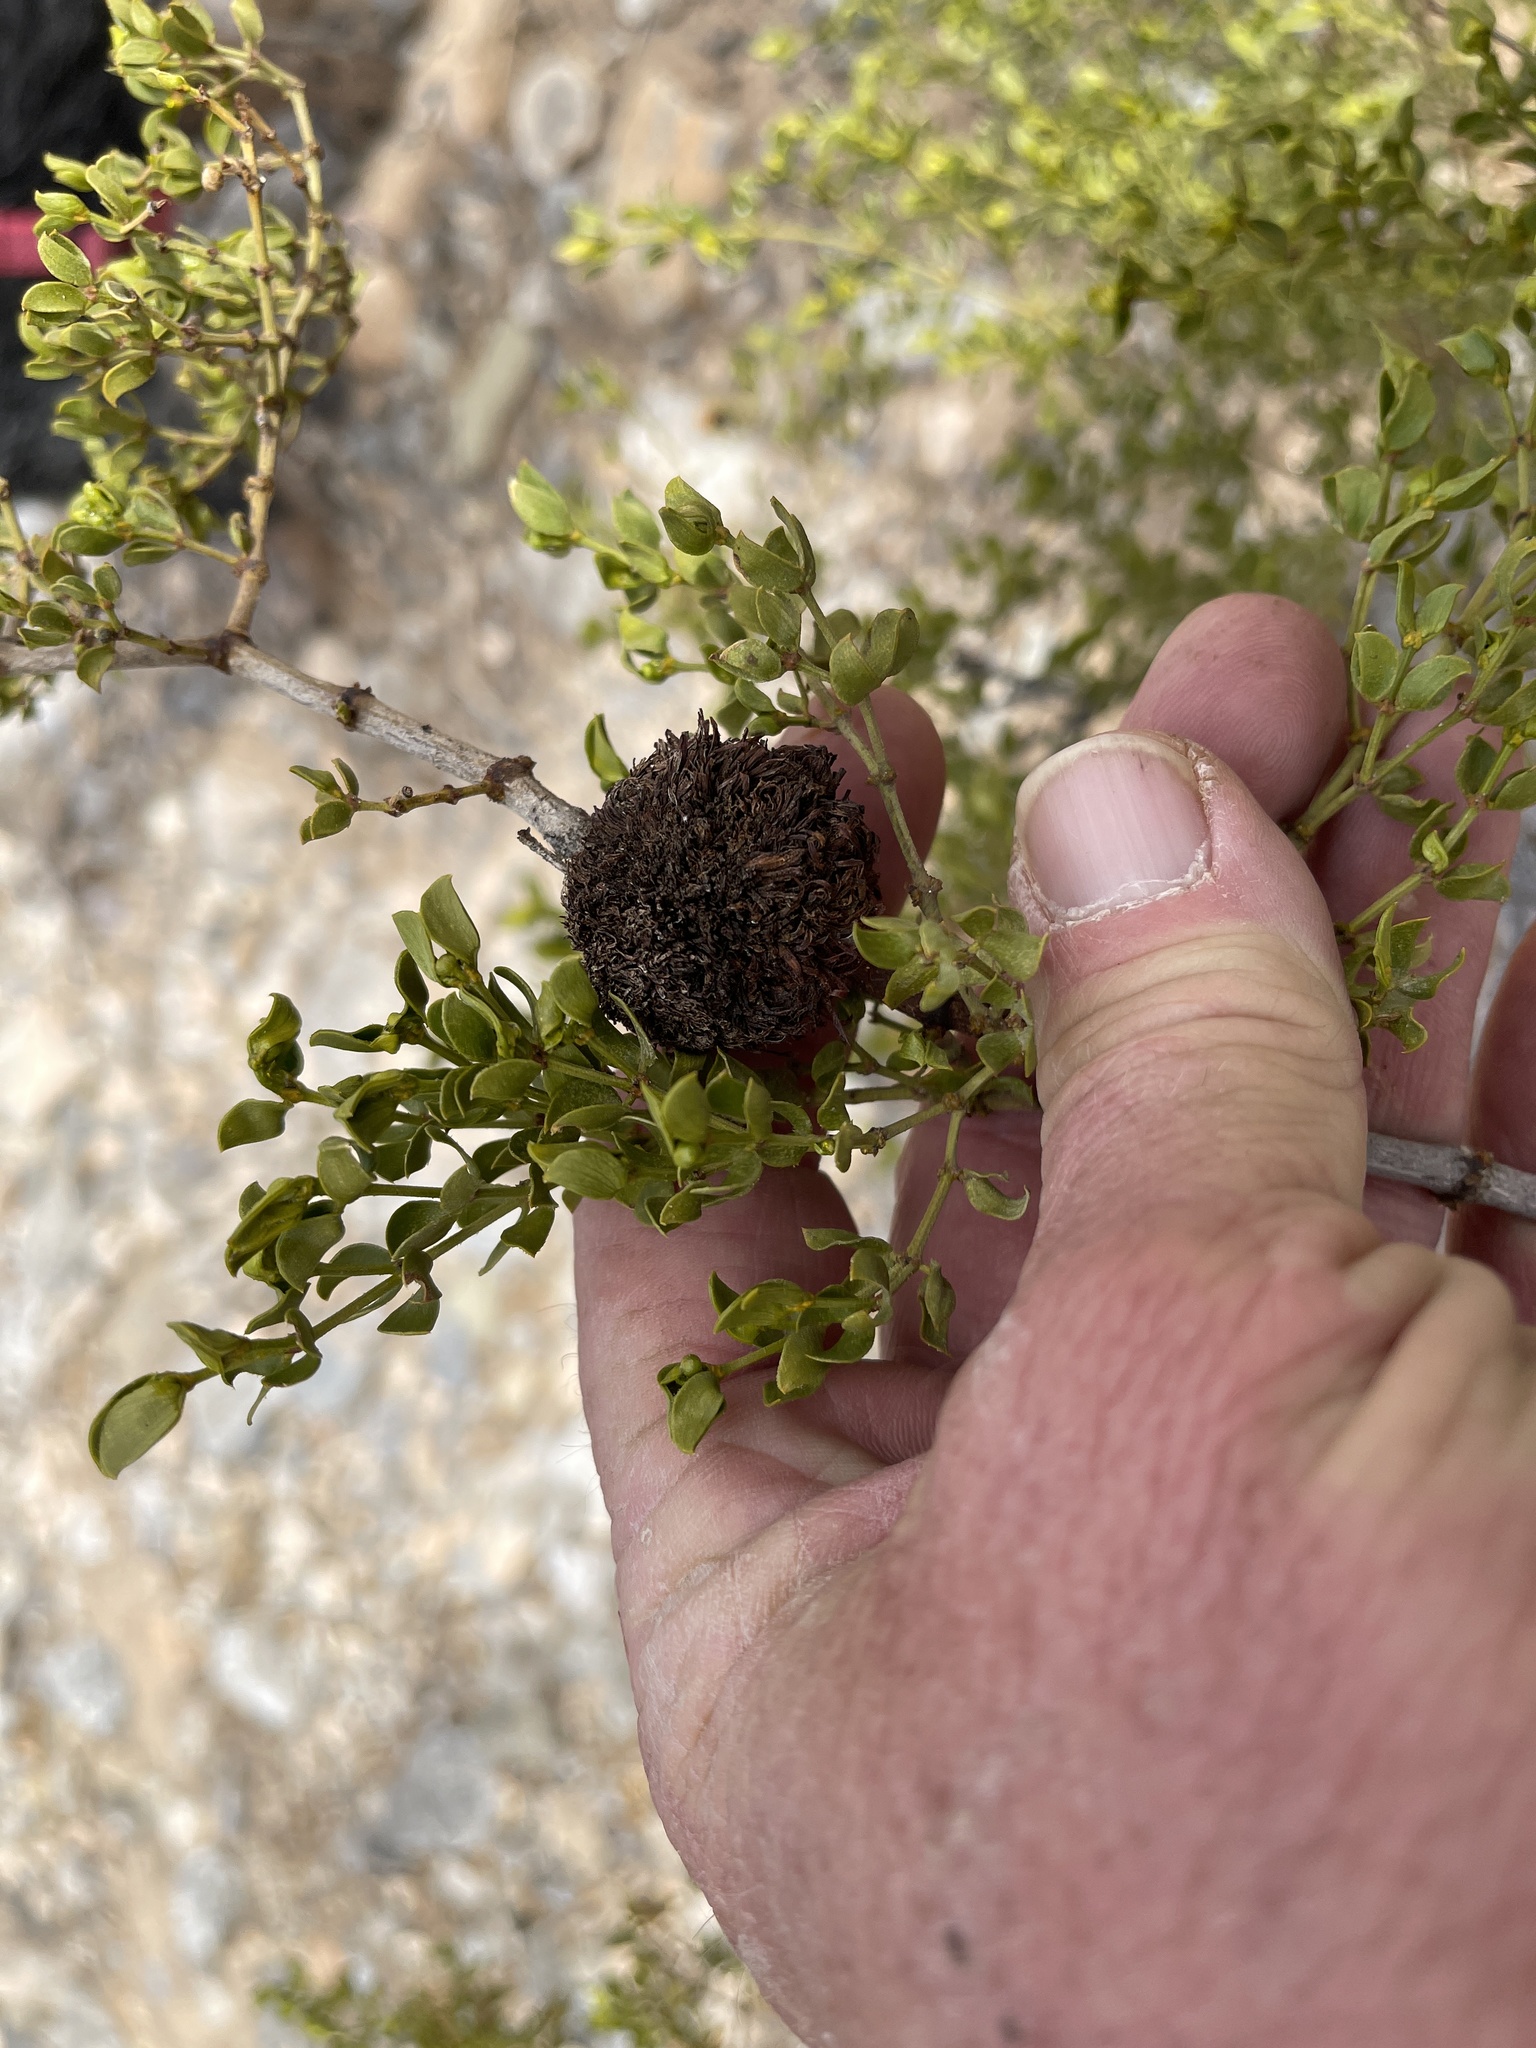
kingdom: Animalia
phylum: Arthropoda
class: Insecta
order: Diptera
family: Cecidomyiidae
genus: Asphondylia
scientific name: Asphondylia auripila
